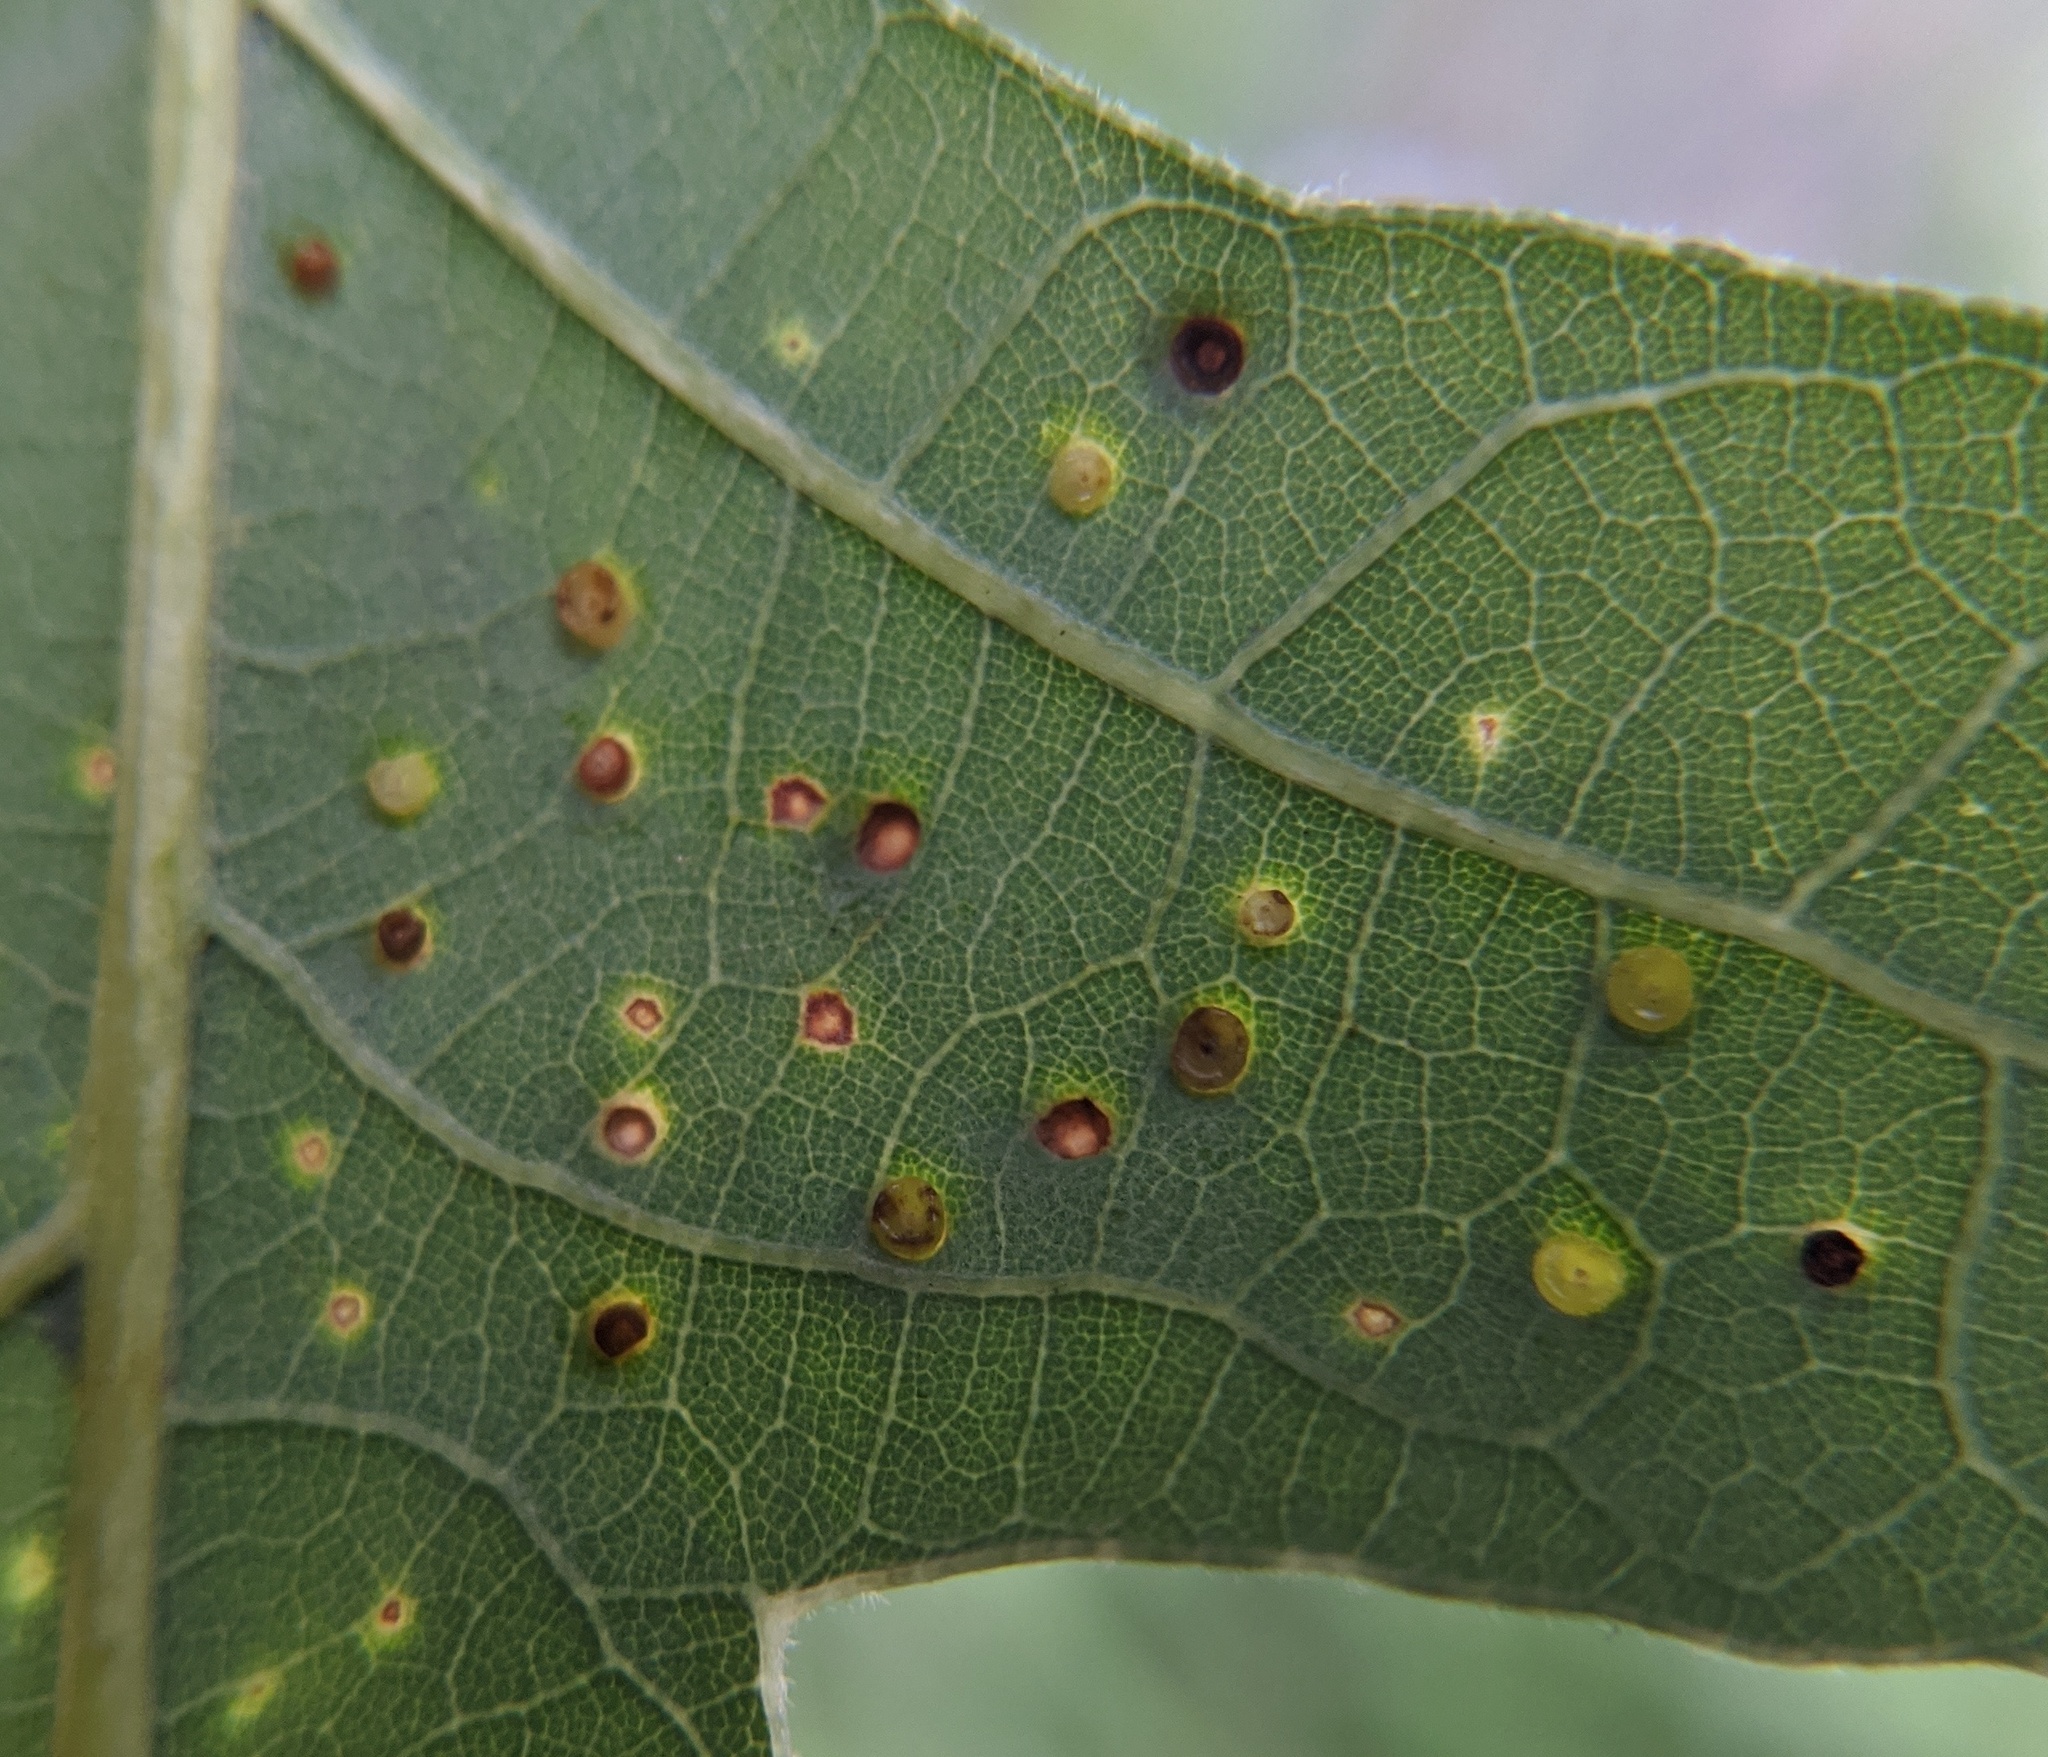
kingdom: Animalia
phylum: Arthropoda
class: Insecta
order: Hymenoptera
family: Cynipidae
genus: Neuroterus
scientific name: Neuroterus saltarius
